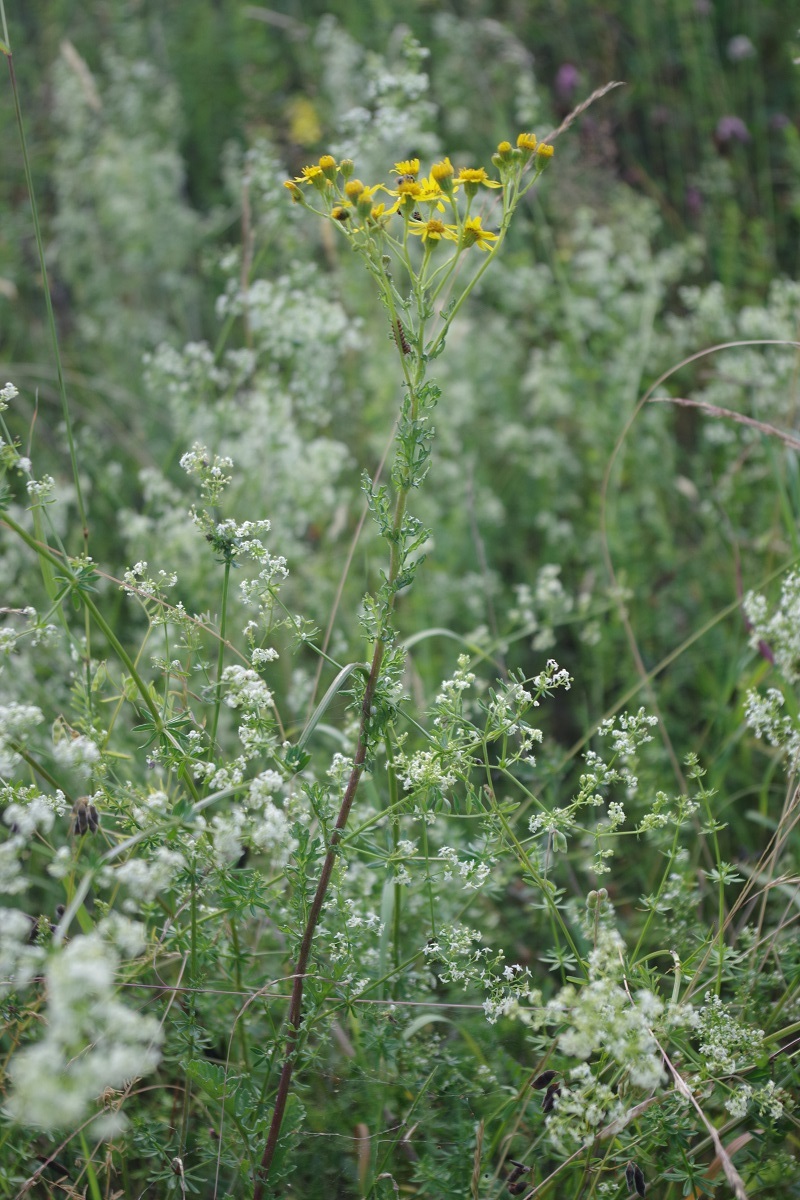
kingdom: Plantae
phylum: Tracheophyta
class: Magnoliopsida
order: Asterales
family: Asteraceae
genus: Jacobaea
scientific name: Jacobaea vulgaris
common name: Stinking willie
